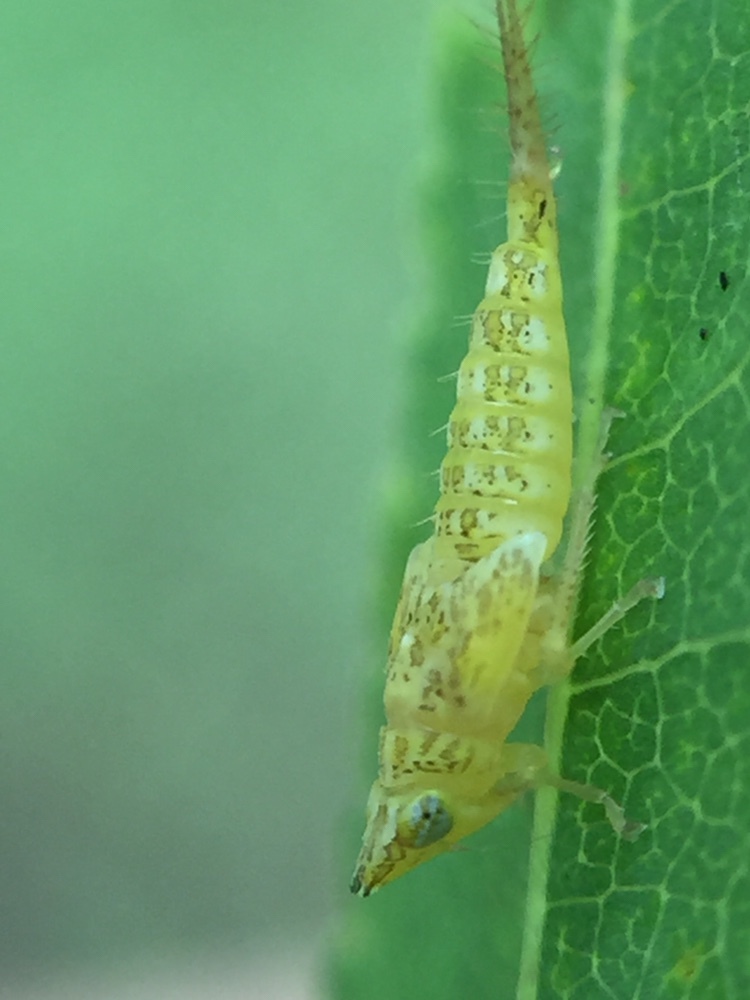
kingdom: Animalia
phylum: Arthropoda
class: Insecta
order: Hemiptera
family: Cicadellidae
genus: Japananus
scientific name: Japananus hyalinus
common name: The japanese maple leafhopper
